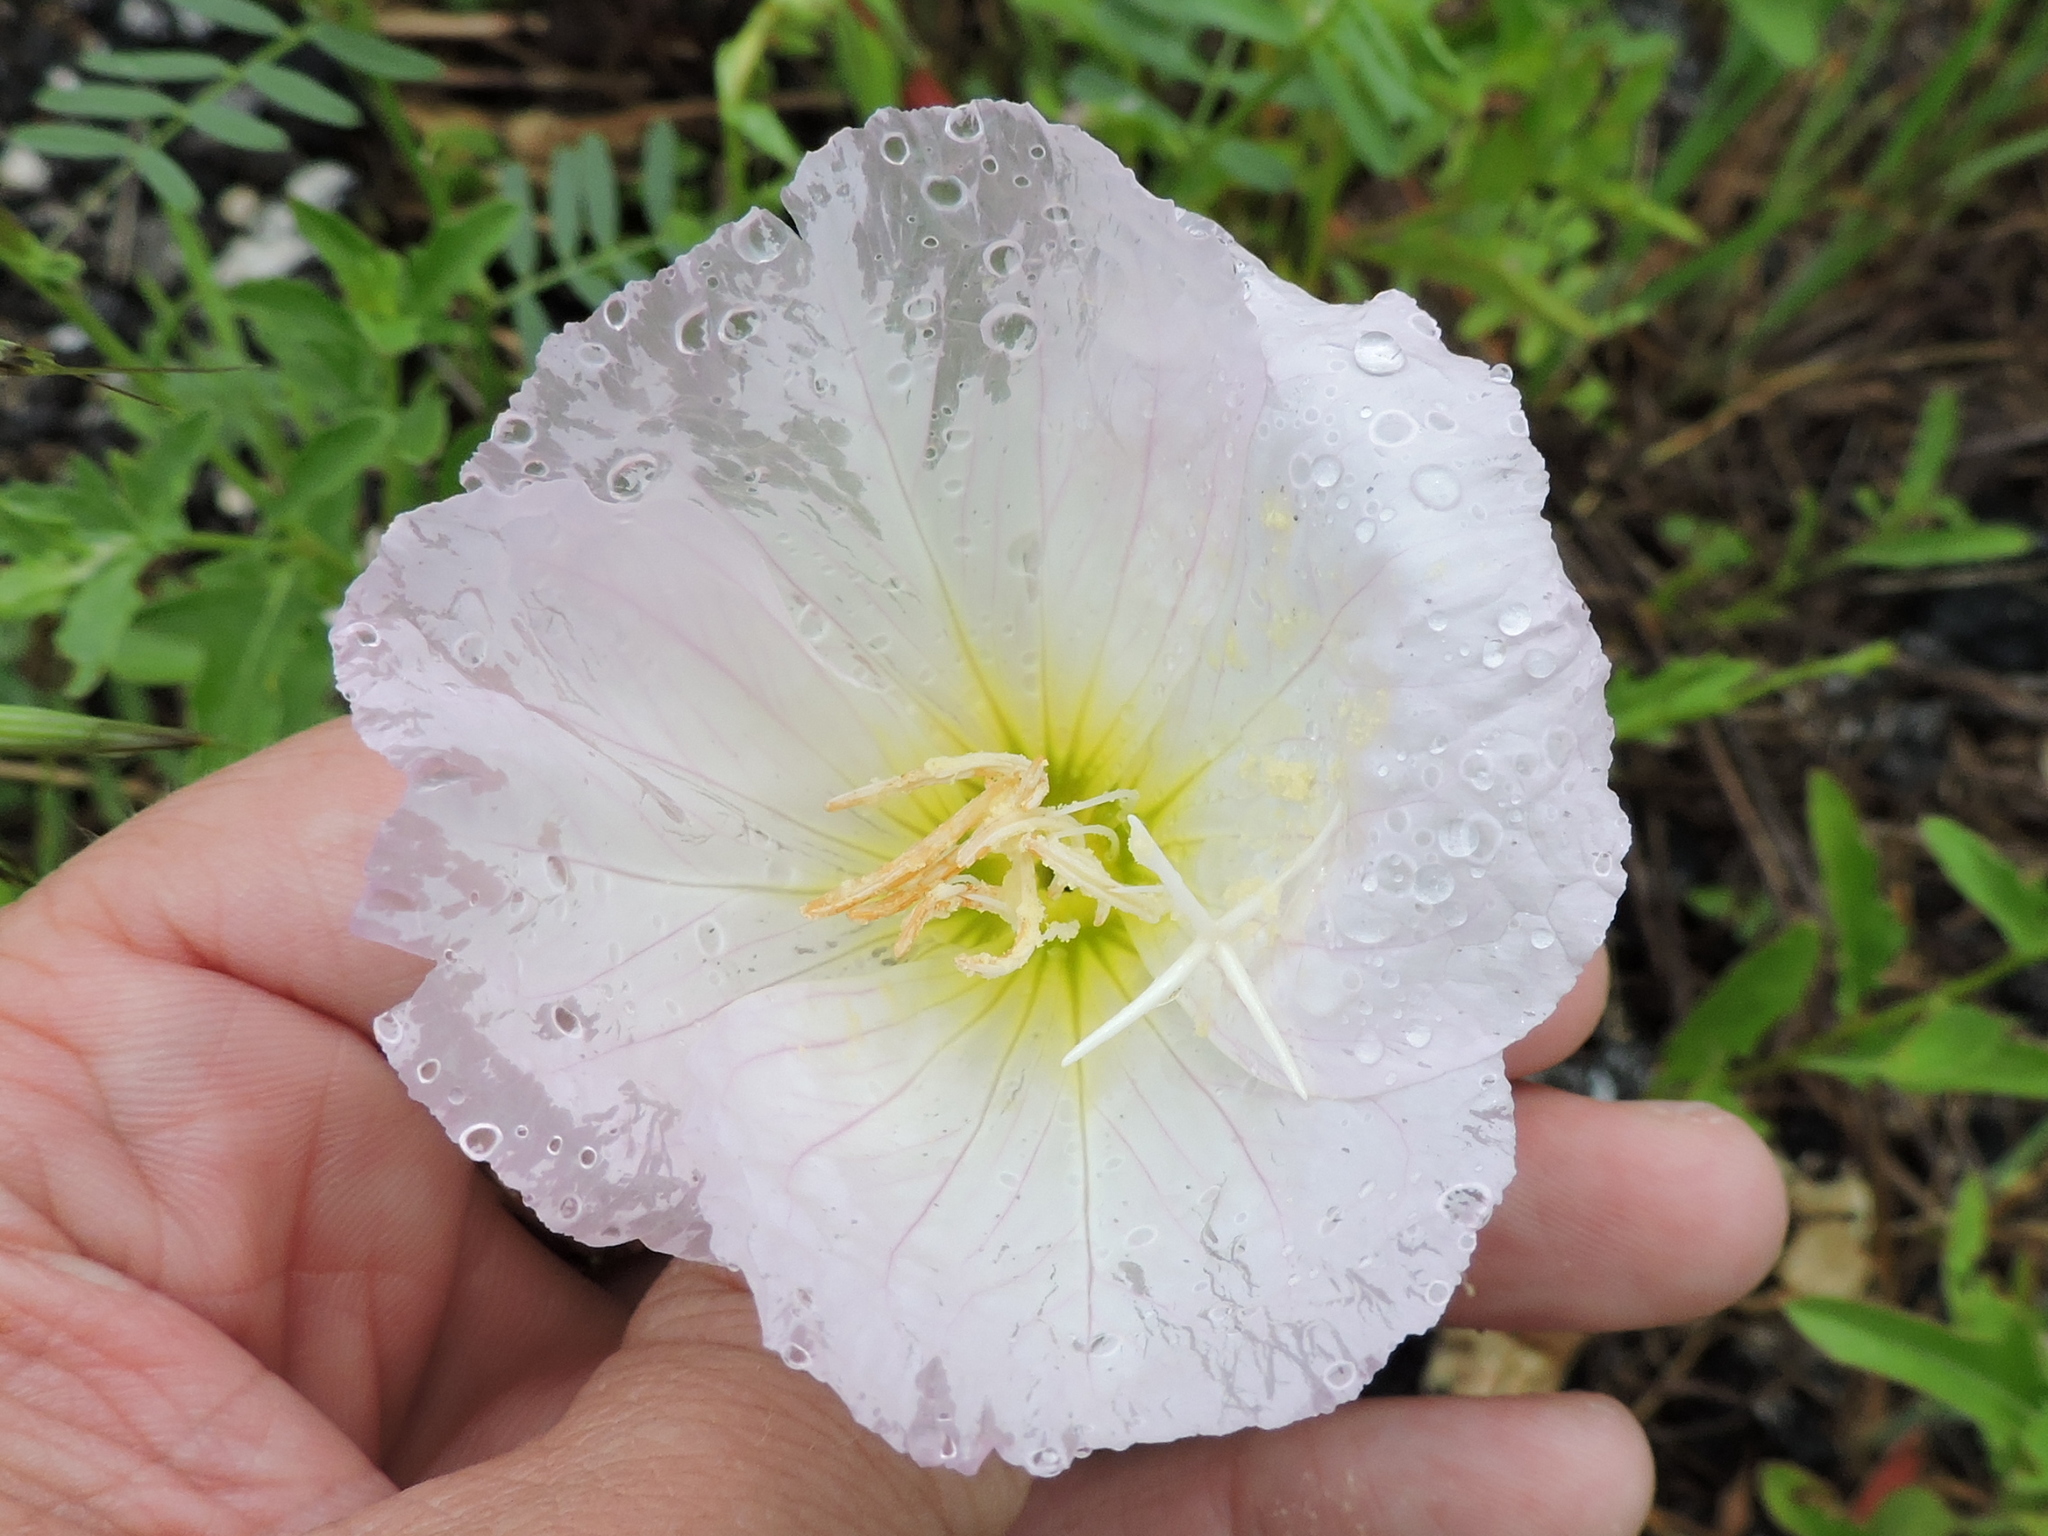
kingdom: Plantae
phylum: Tracheophyta
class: Magnoliopsida
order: Myrtales
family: Onagraceae
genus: Oenothera
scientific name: Oenothera speciosa
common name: White evening-primrose
